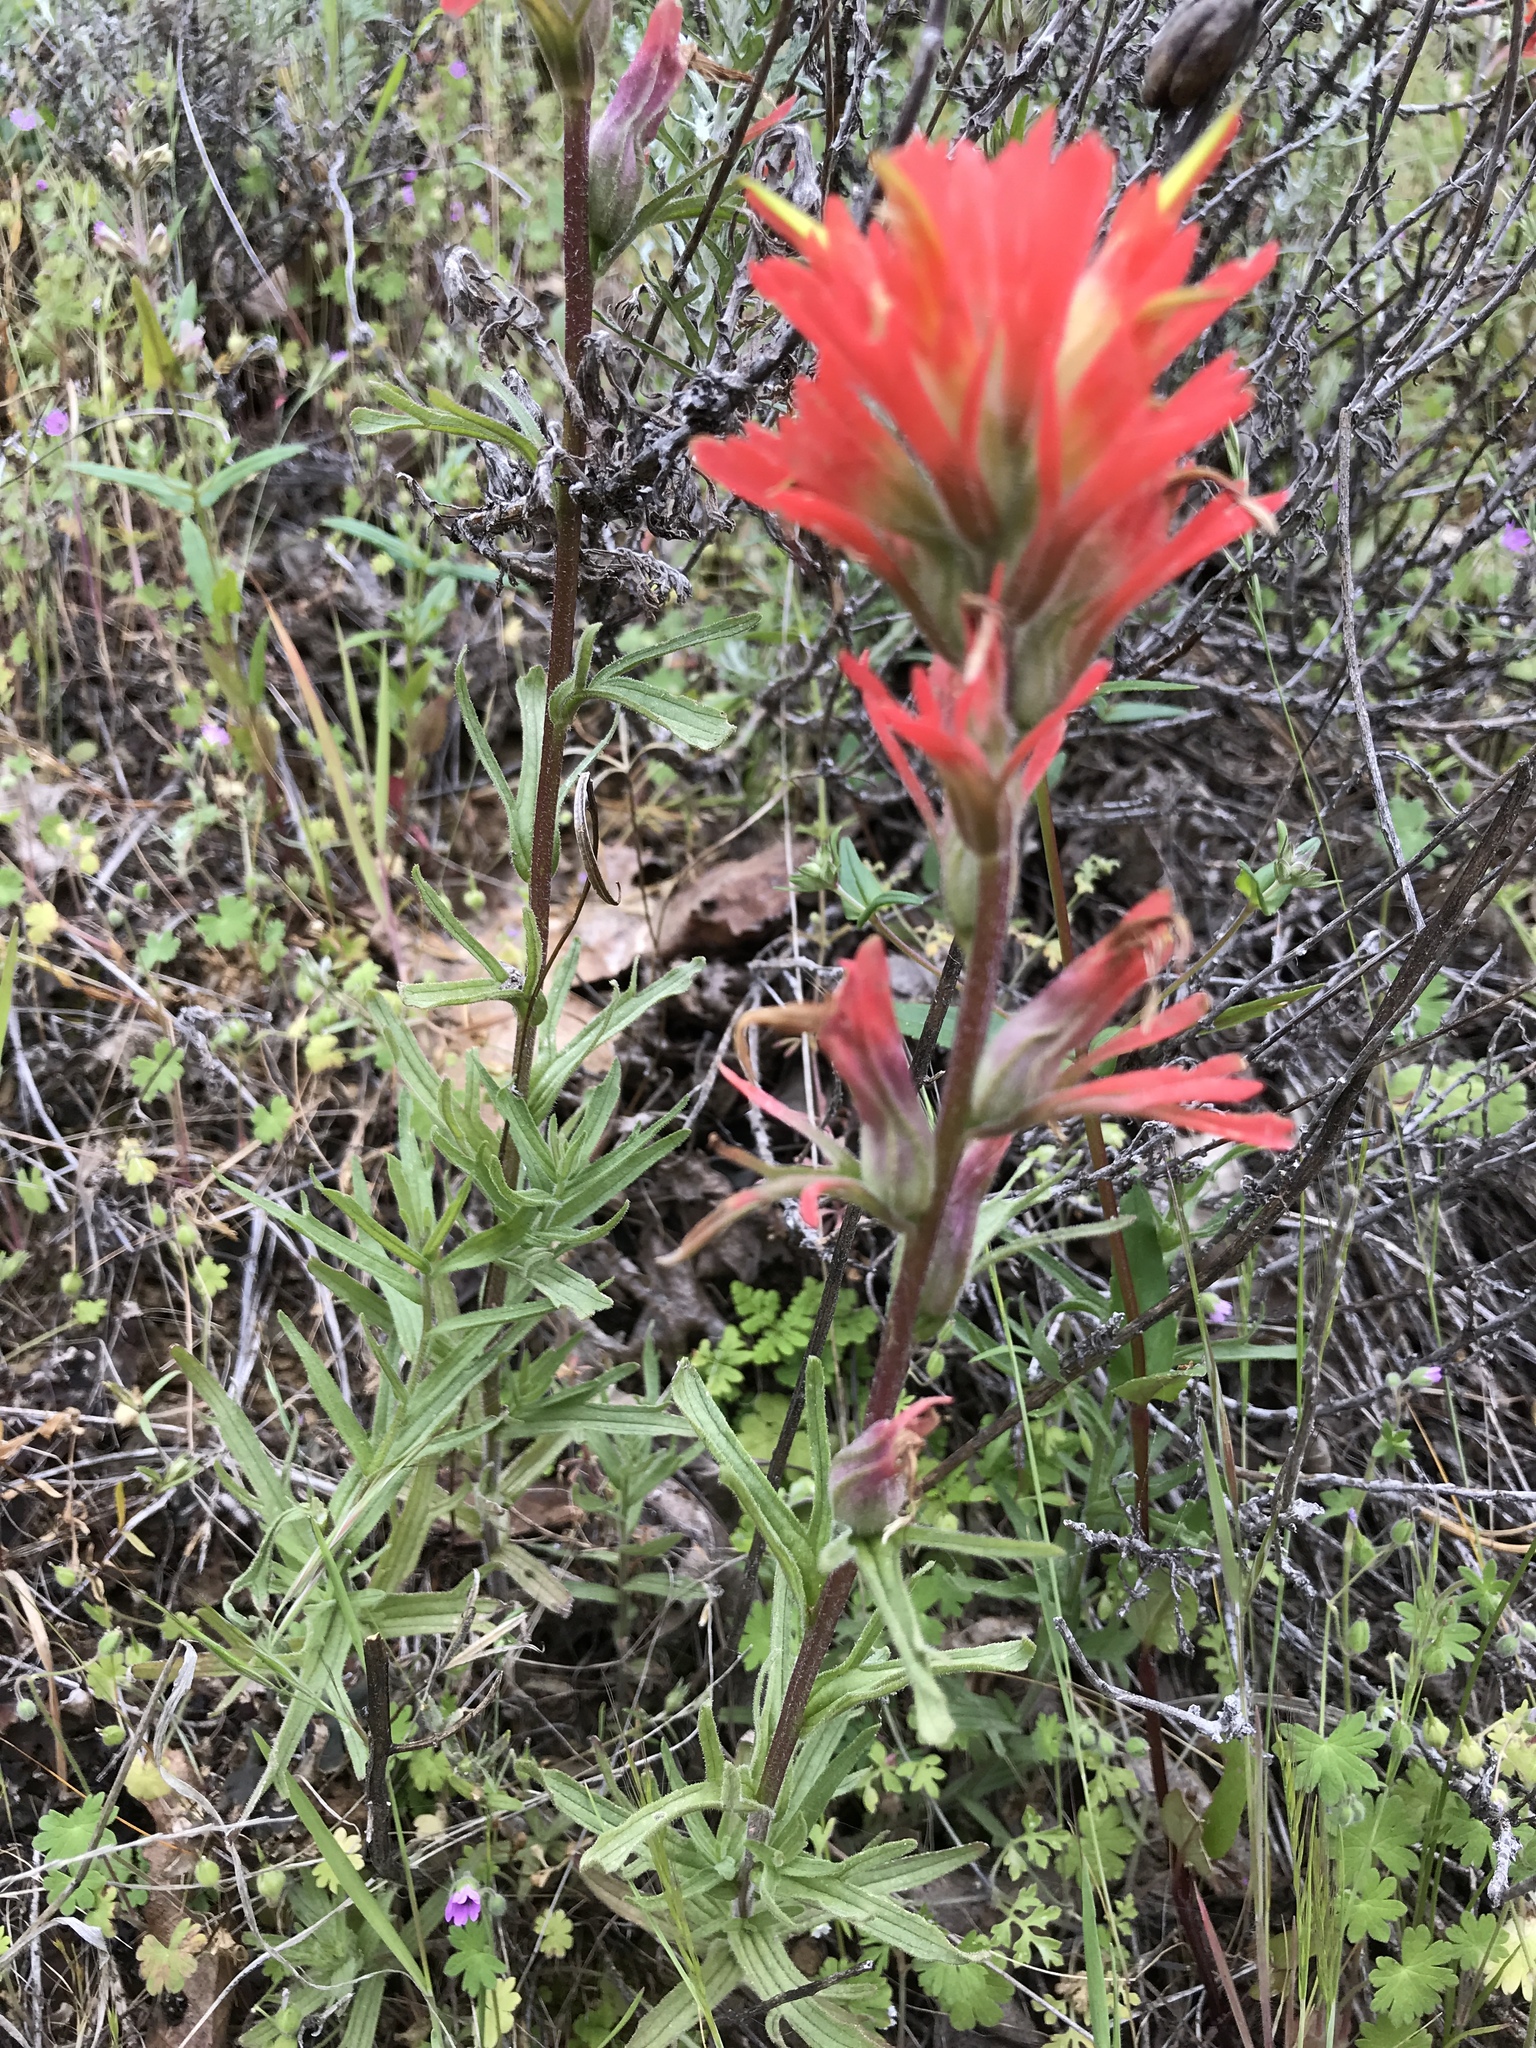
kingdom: Plantae
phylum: Tracheophyta
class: Magnoliopsida
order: Lamiales
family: Orobanchaceae
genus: Castilleja
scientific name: Castilleja affinis
